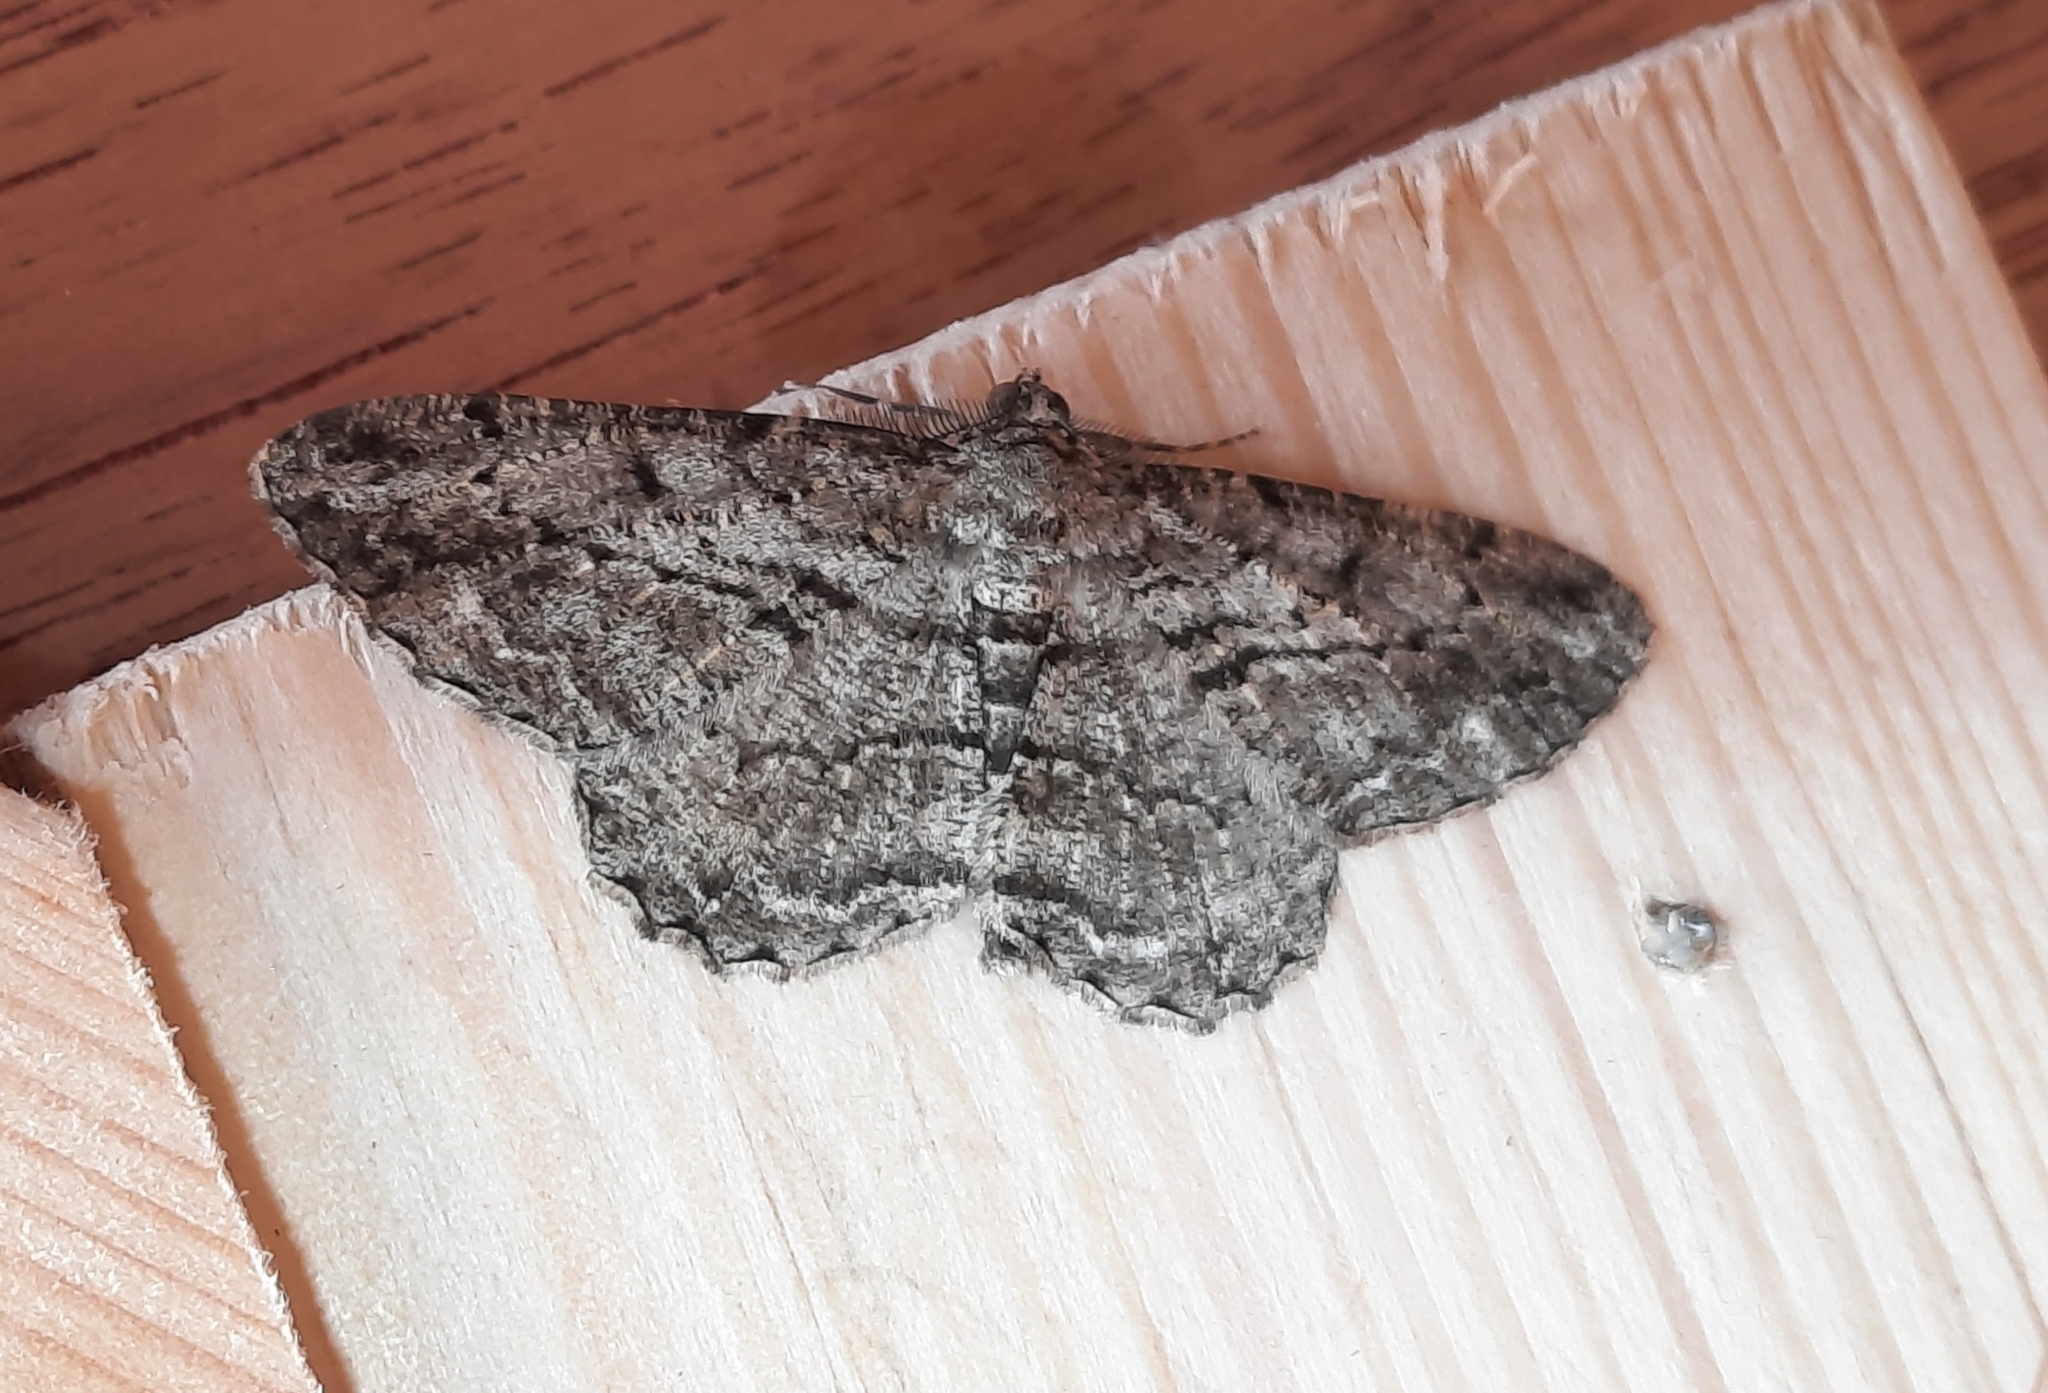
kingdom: Animalia
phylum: Arthropoda
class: Insecta
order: Lepidoptera
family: Geometridae
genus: Peribatodes
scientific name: Peribatodes rhomboidaria
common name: Willow beauty
